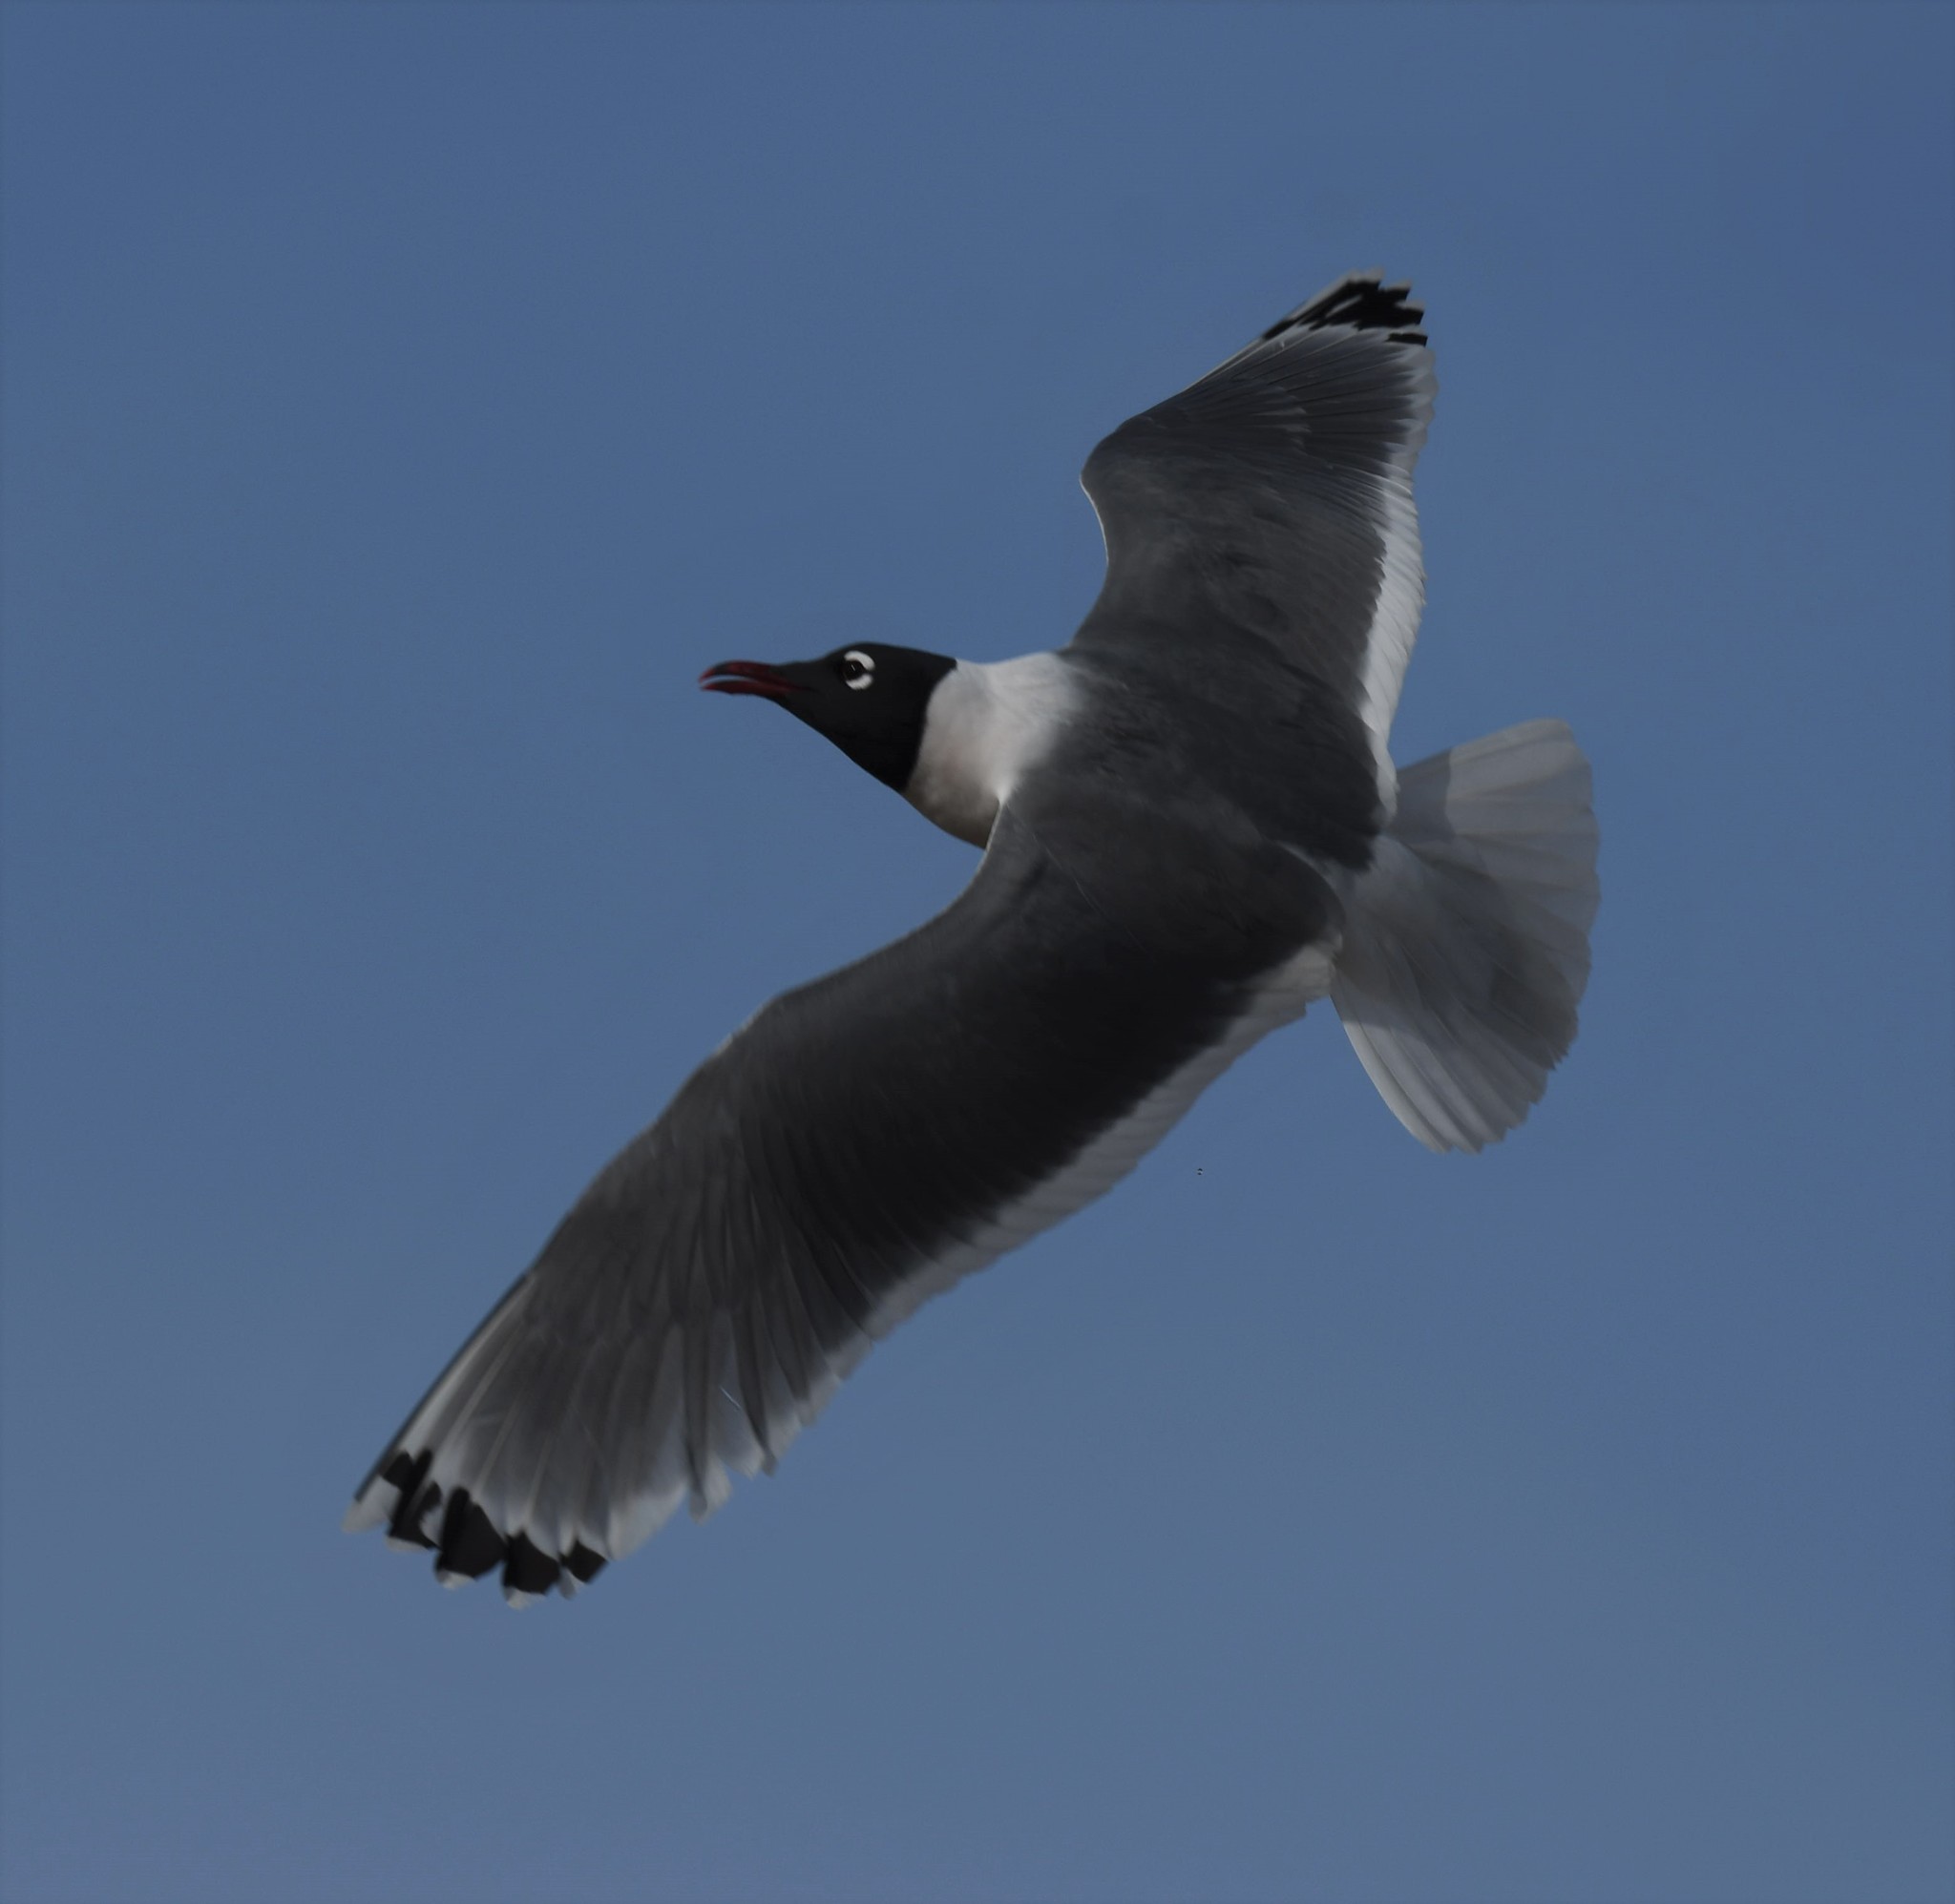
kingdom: Animalia
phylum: Chordata
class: Aves
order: Charadriiformes
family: Laridae
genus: Leucophaeus
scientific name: Leucophaeus pipixcan
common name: Franklin's gull
